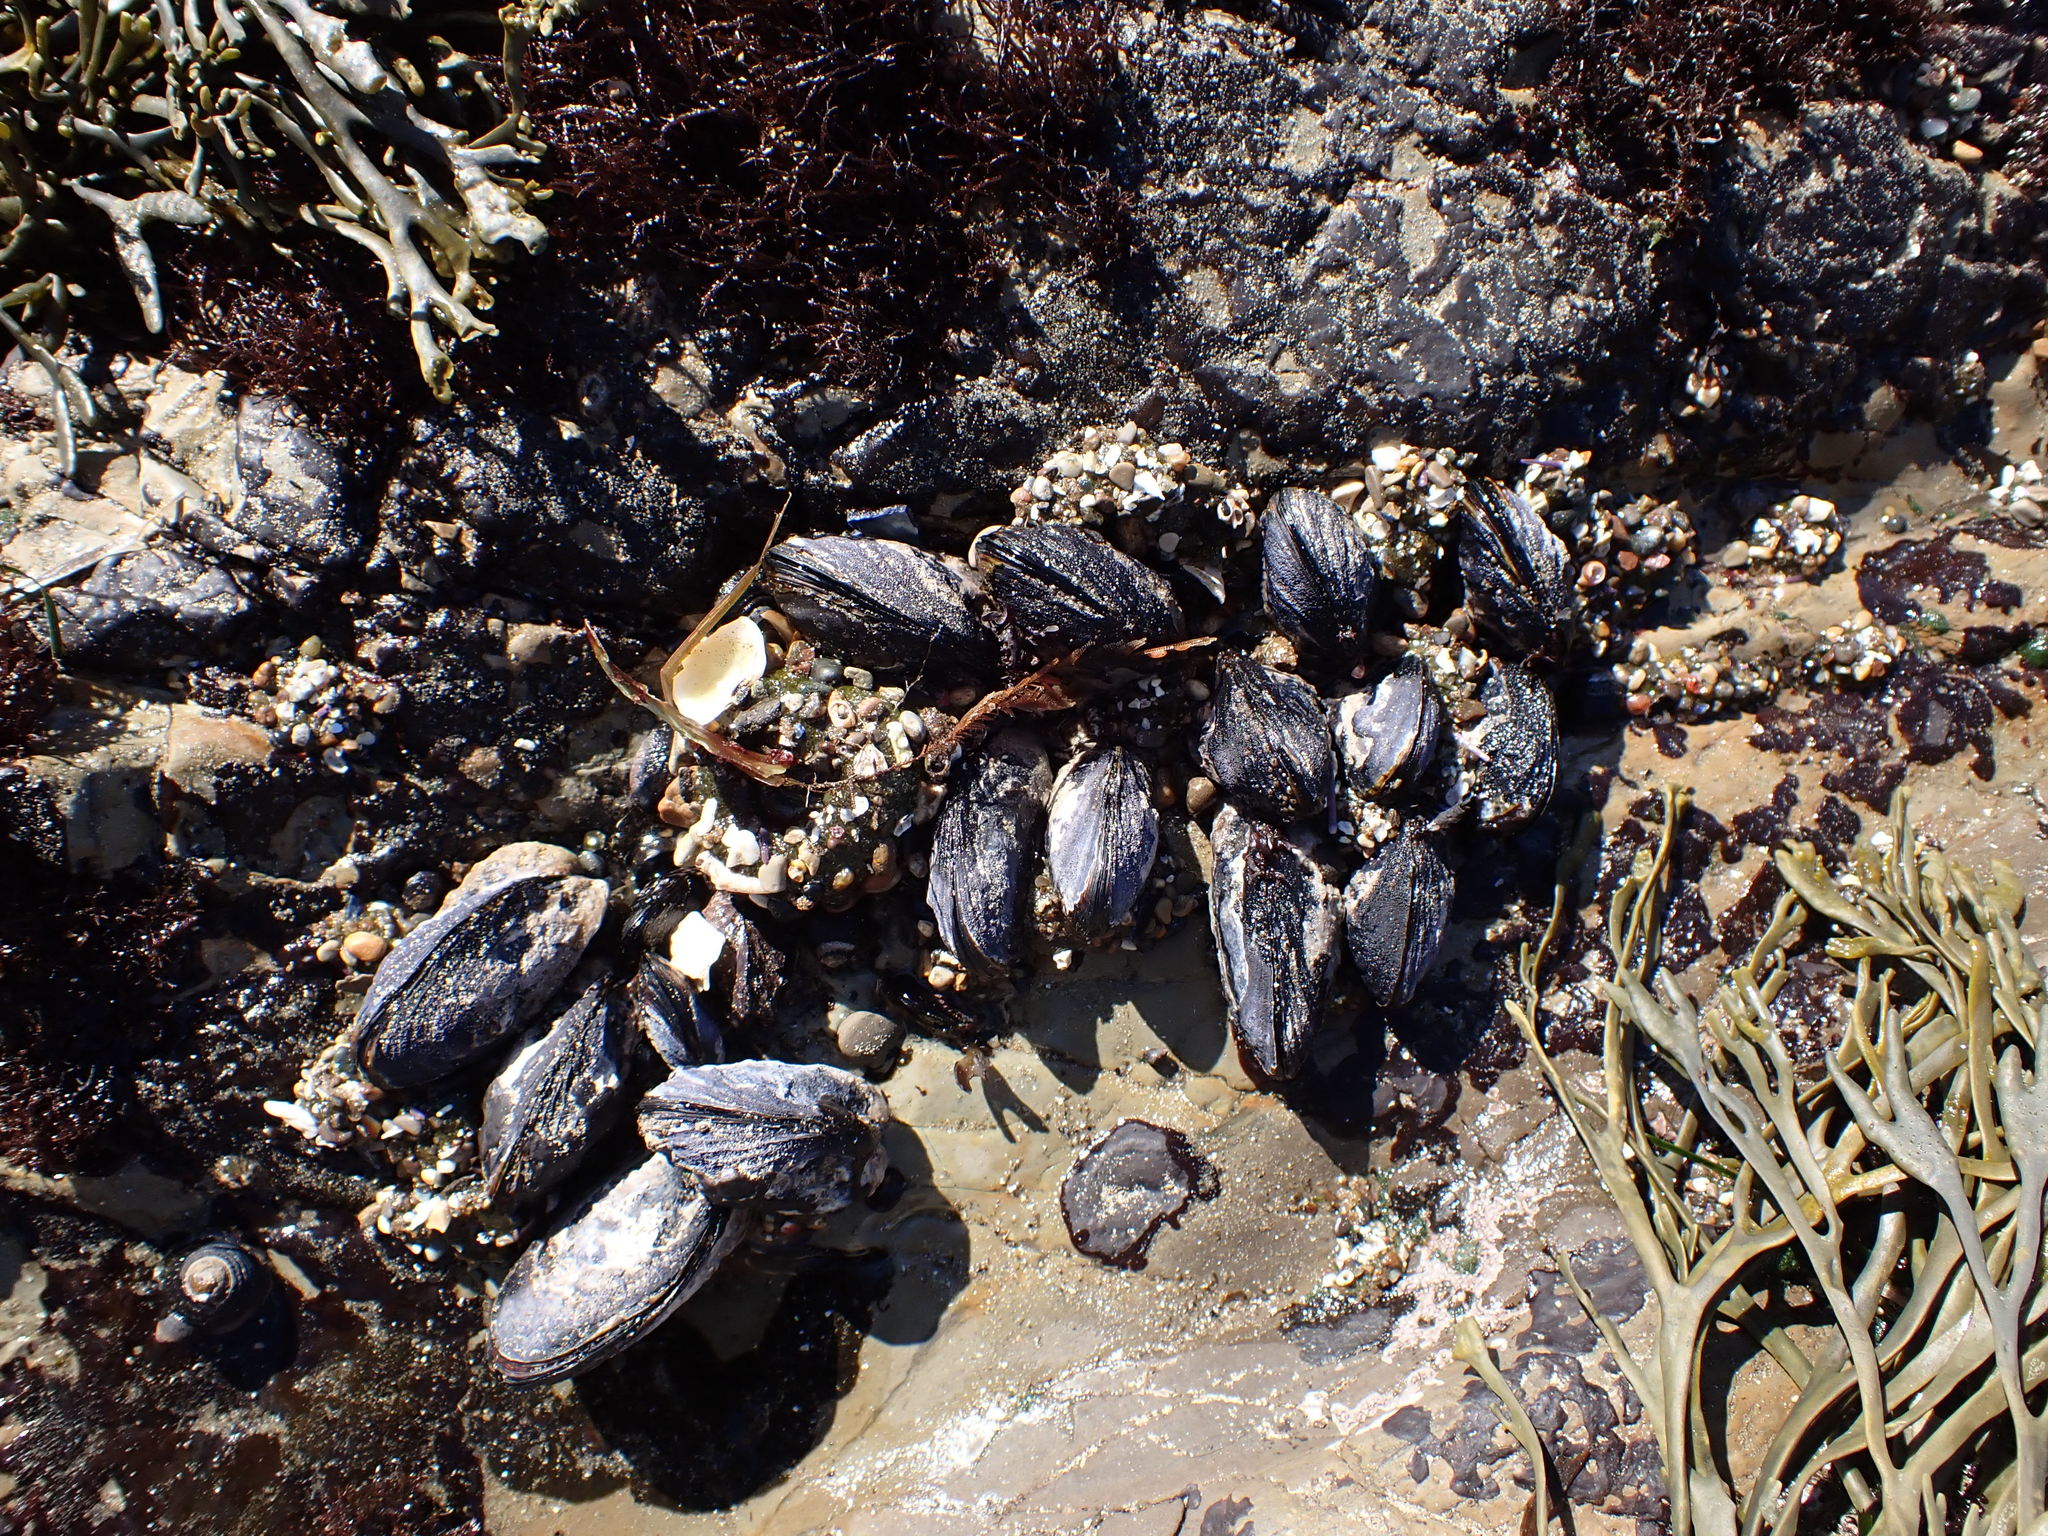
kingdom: Animalia
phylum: Mollusca
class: Bivalvia
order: Mytilida
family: Mytilidae
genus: Mytilus
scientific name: Mytilus californianus
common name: California mussel
